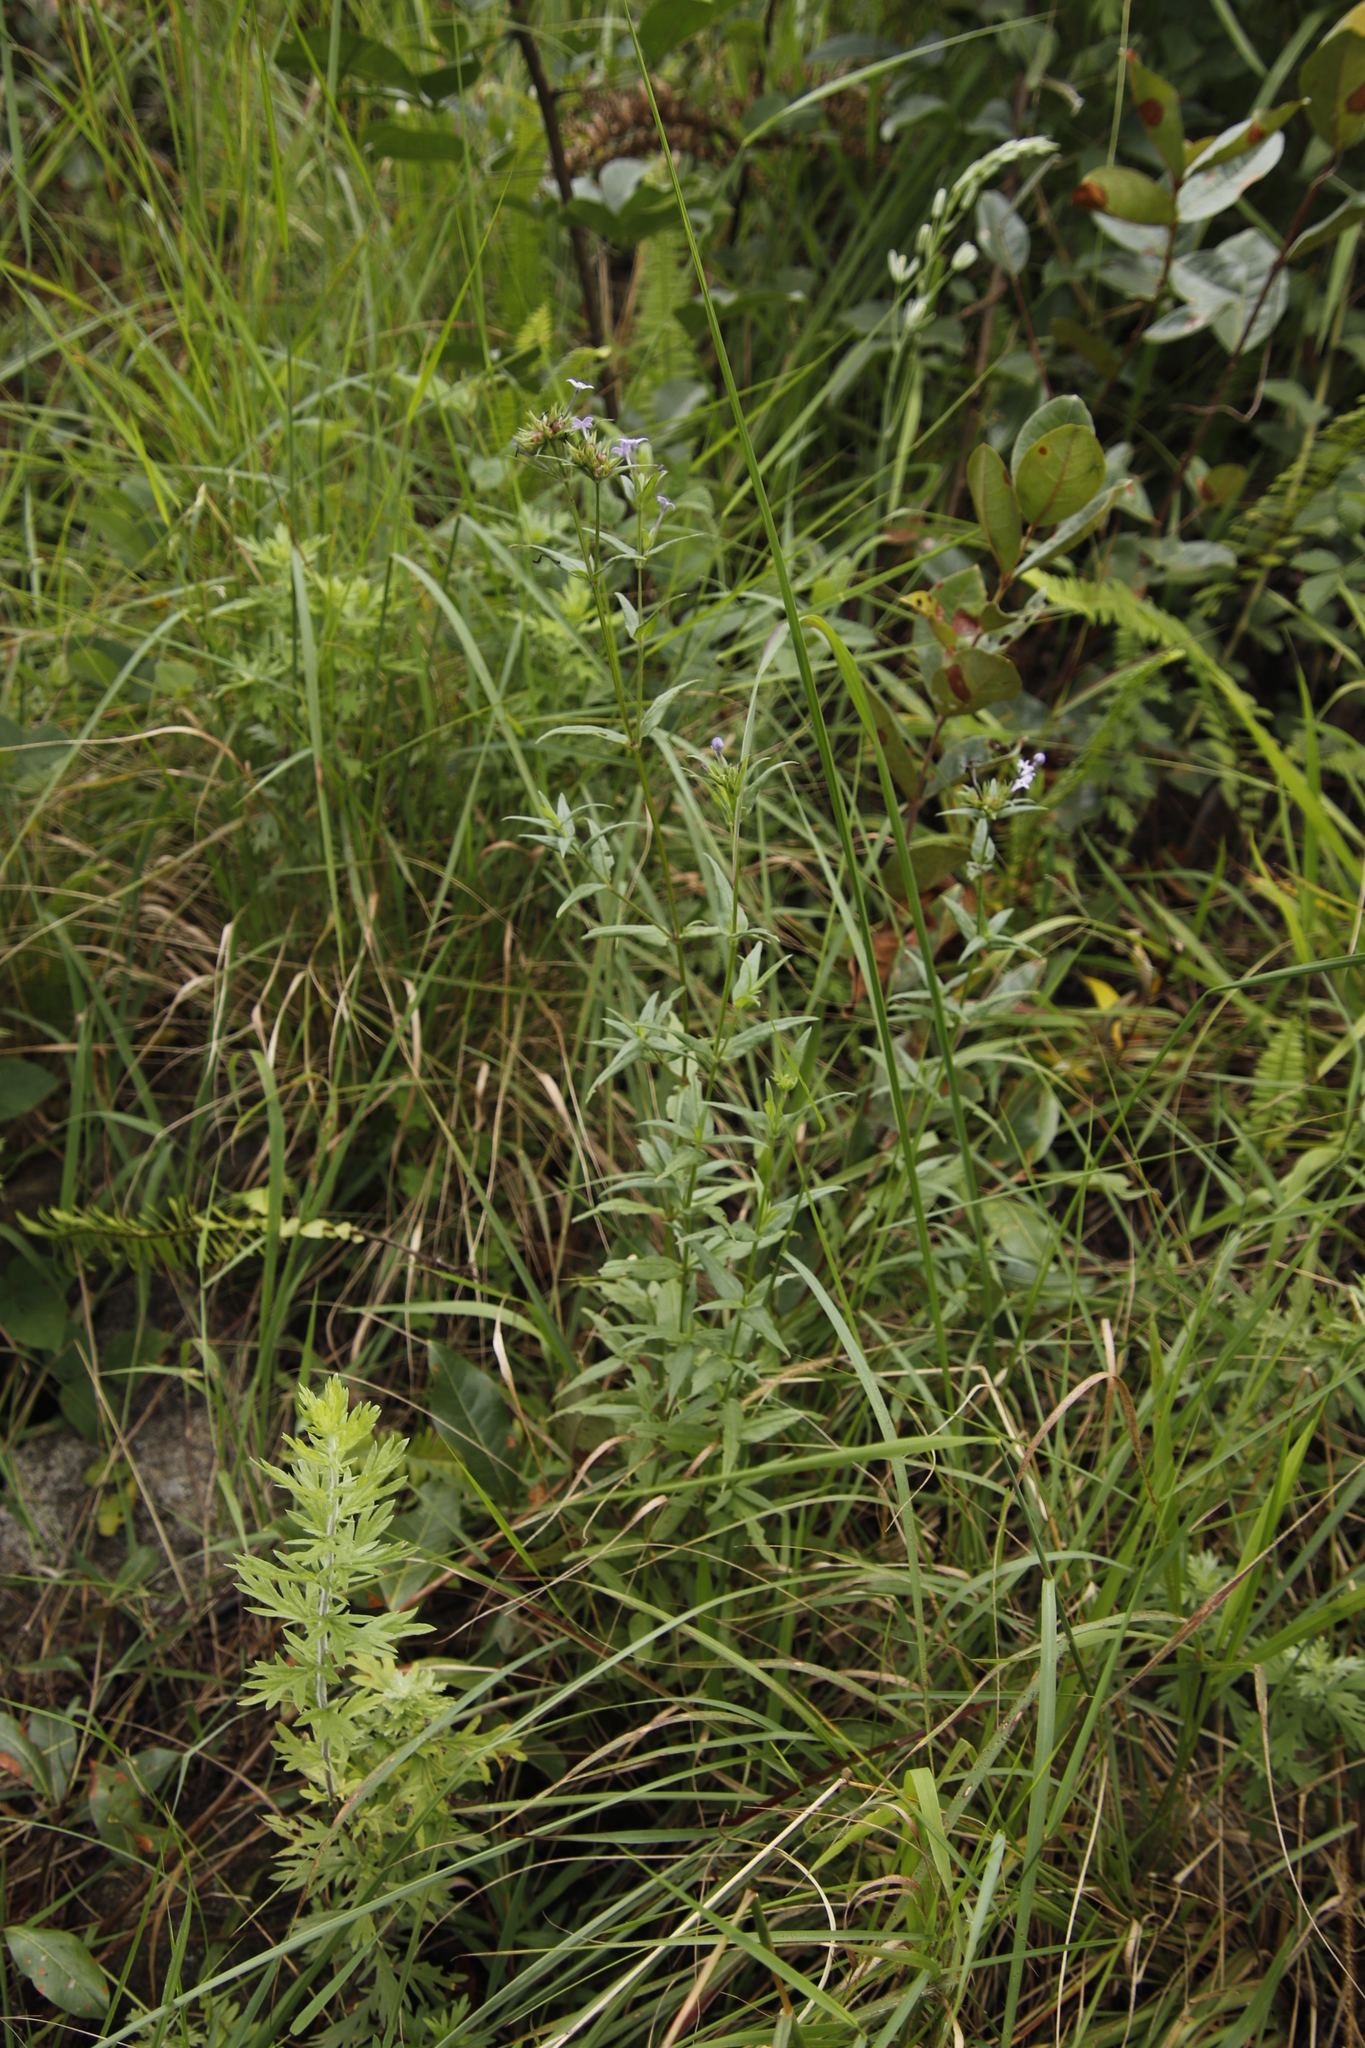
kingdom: Plantae
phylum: Tracheophyta
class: Magnoliopsida
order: Gentianales
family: Rubiaceae
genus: Conostomium
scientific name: Conostomium natalense
